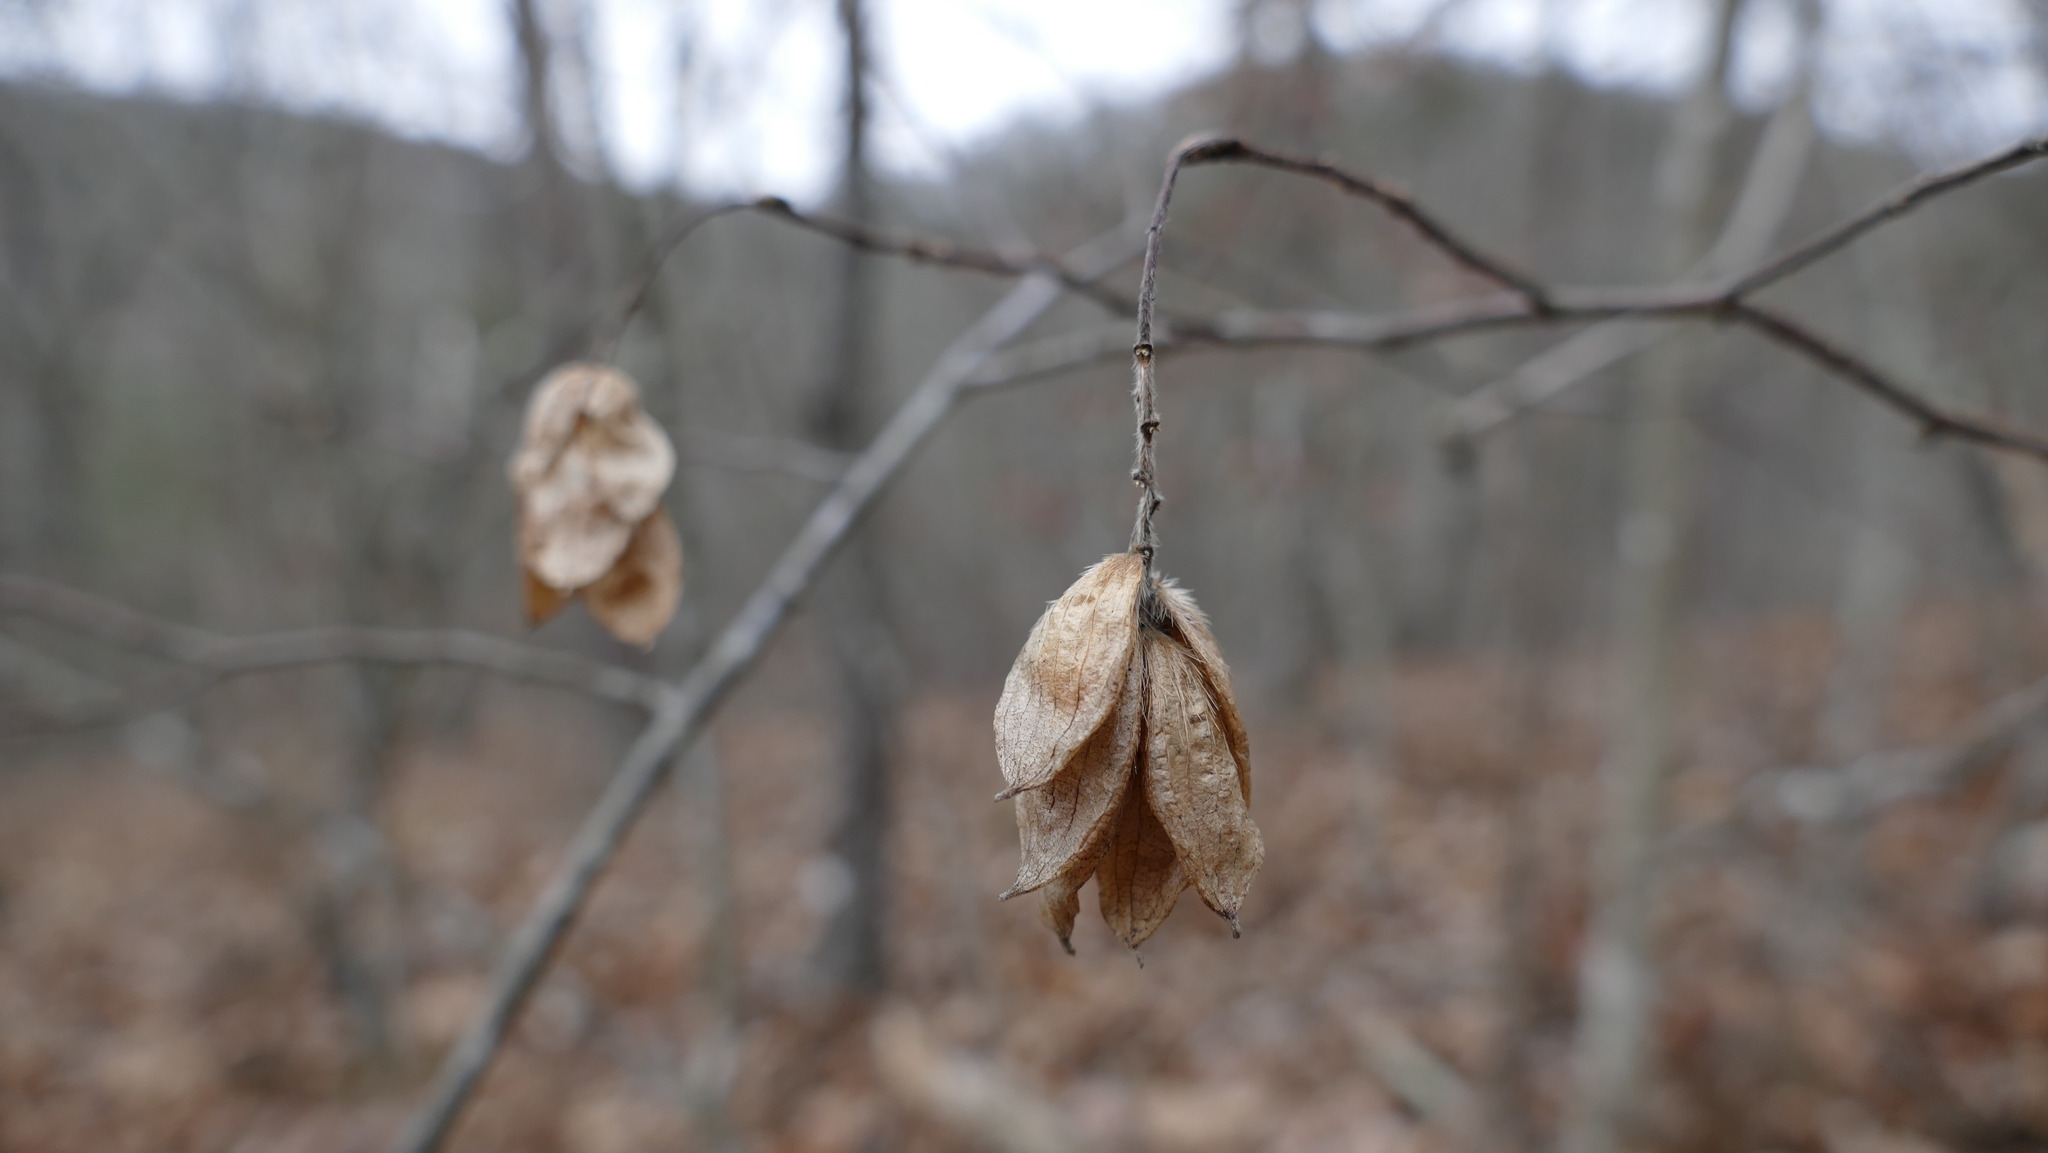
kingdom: Plantae
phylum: Tracheophyta
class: Magnoliopsida
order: Fagales
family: Betulaceae
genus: Ostrya
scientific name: Ostrya virginiana
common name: Ironwood
